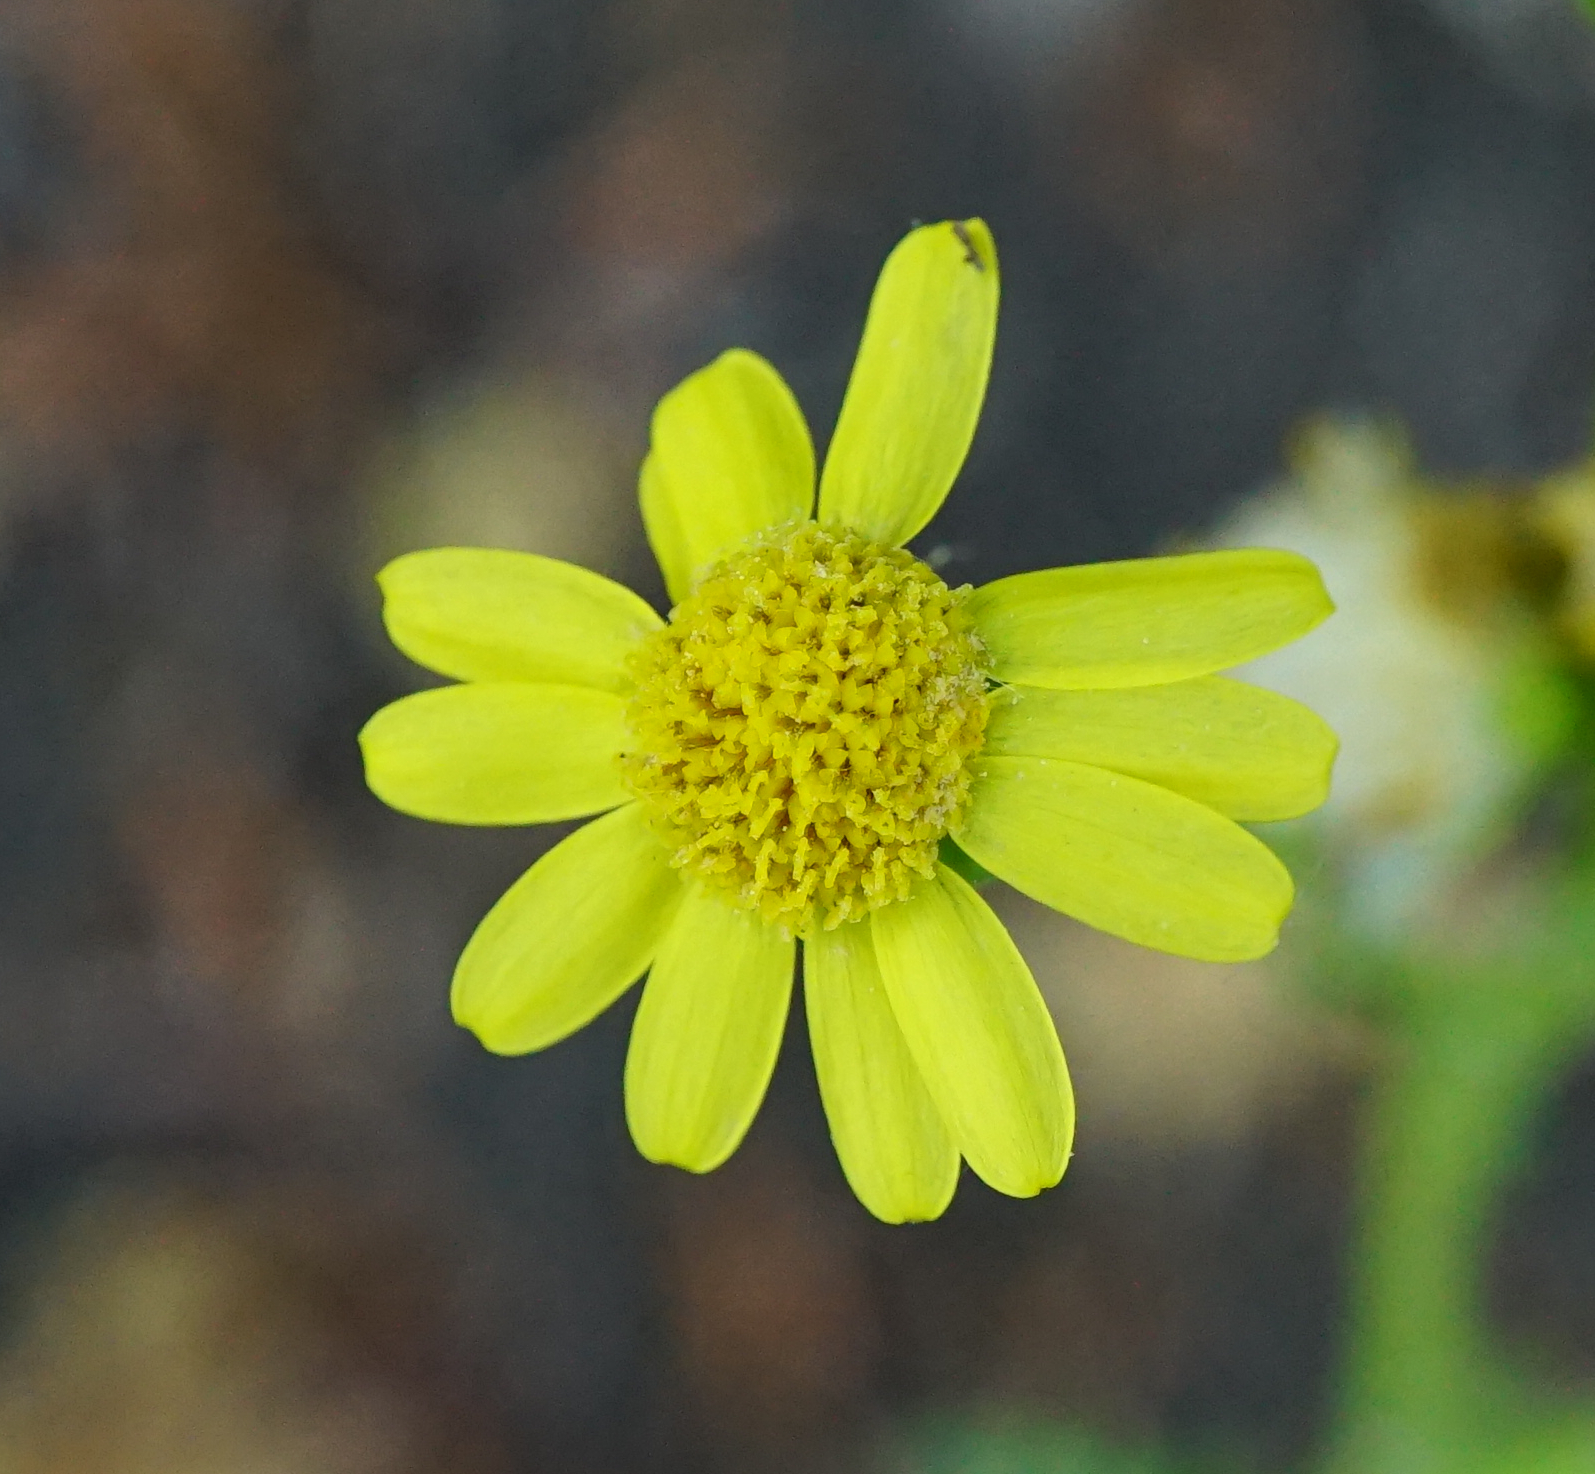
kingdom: Plantae
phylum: Tracheophyta
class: Magnoliopsida
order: Asterales
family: Asteraceae
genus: Senecio
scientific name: Senecio vernalis
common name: Eastern groundsel
